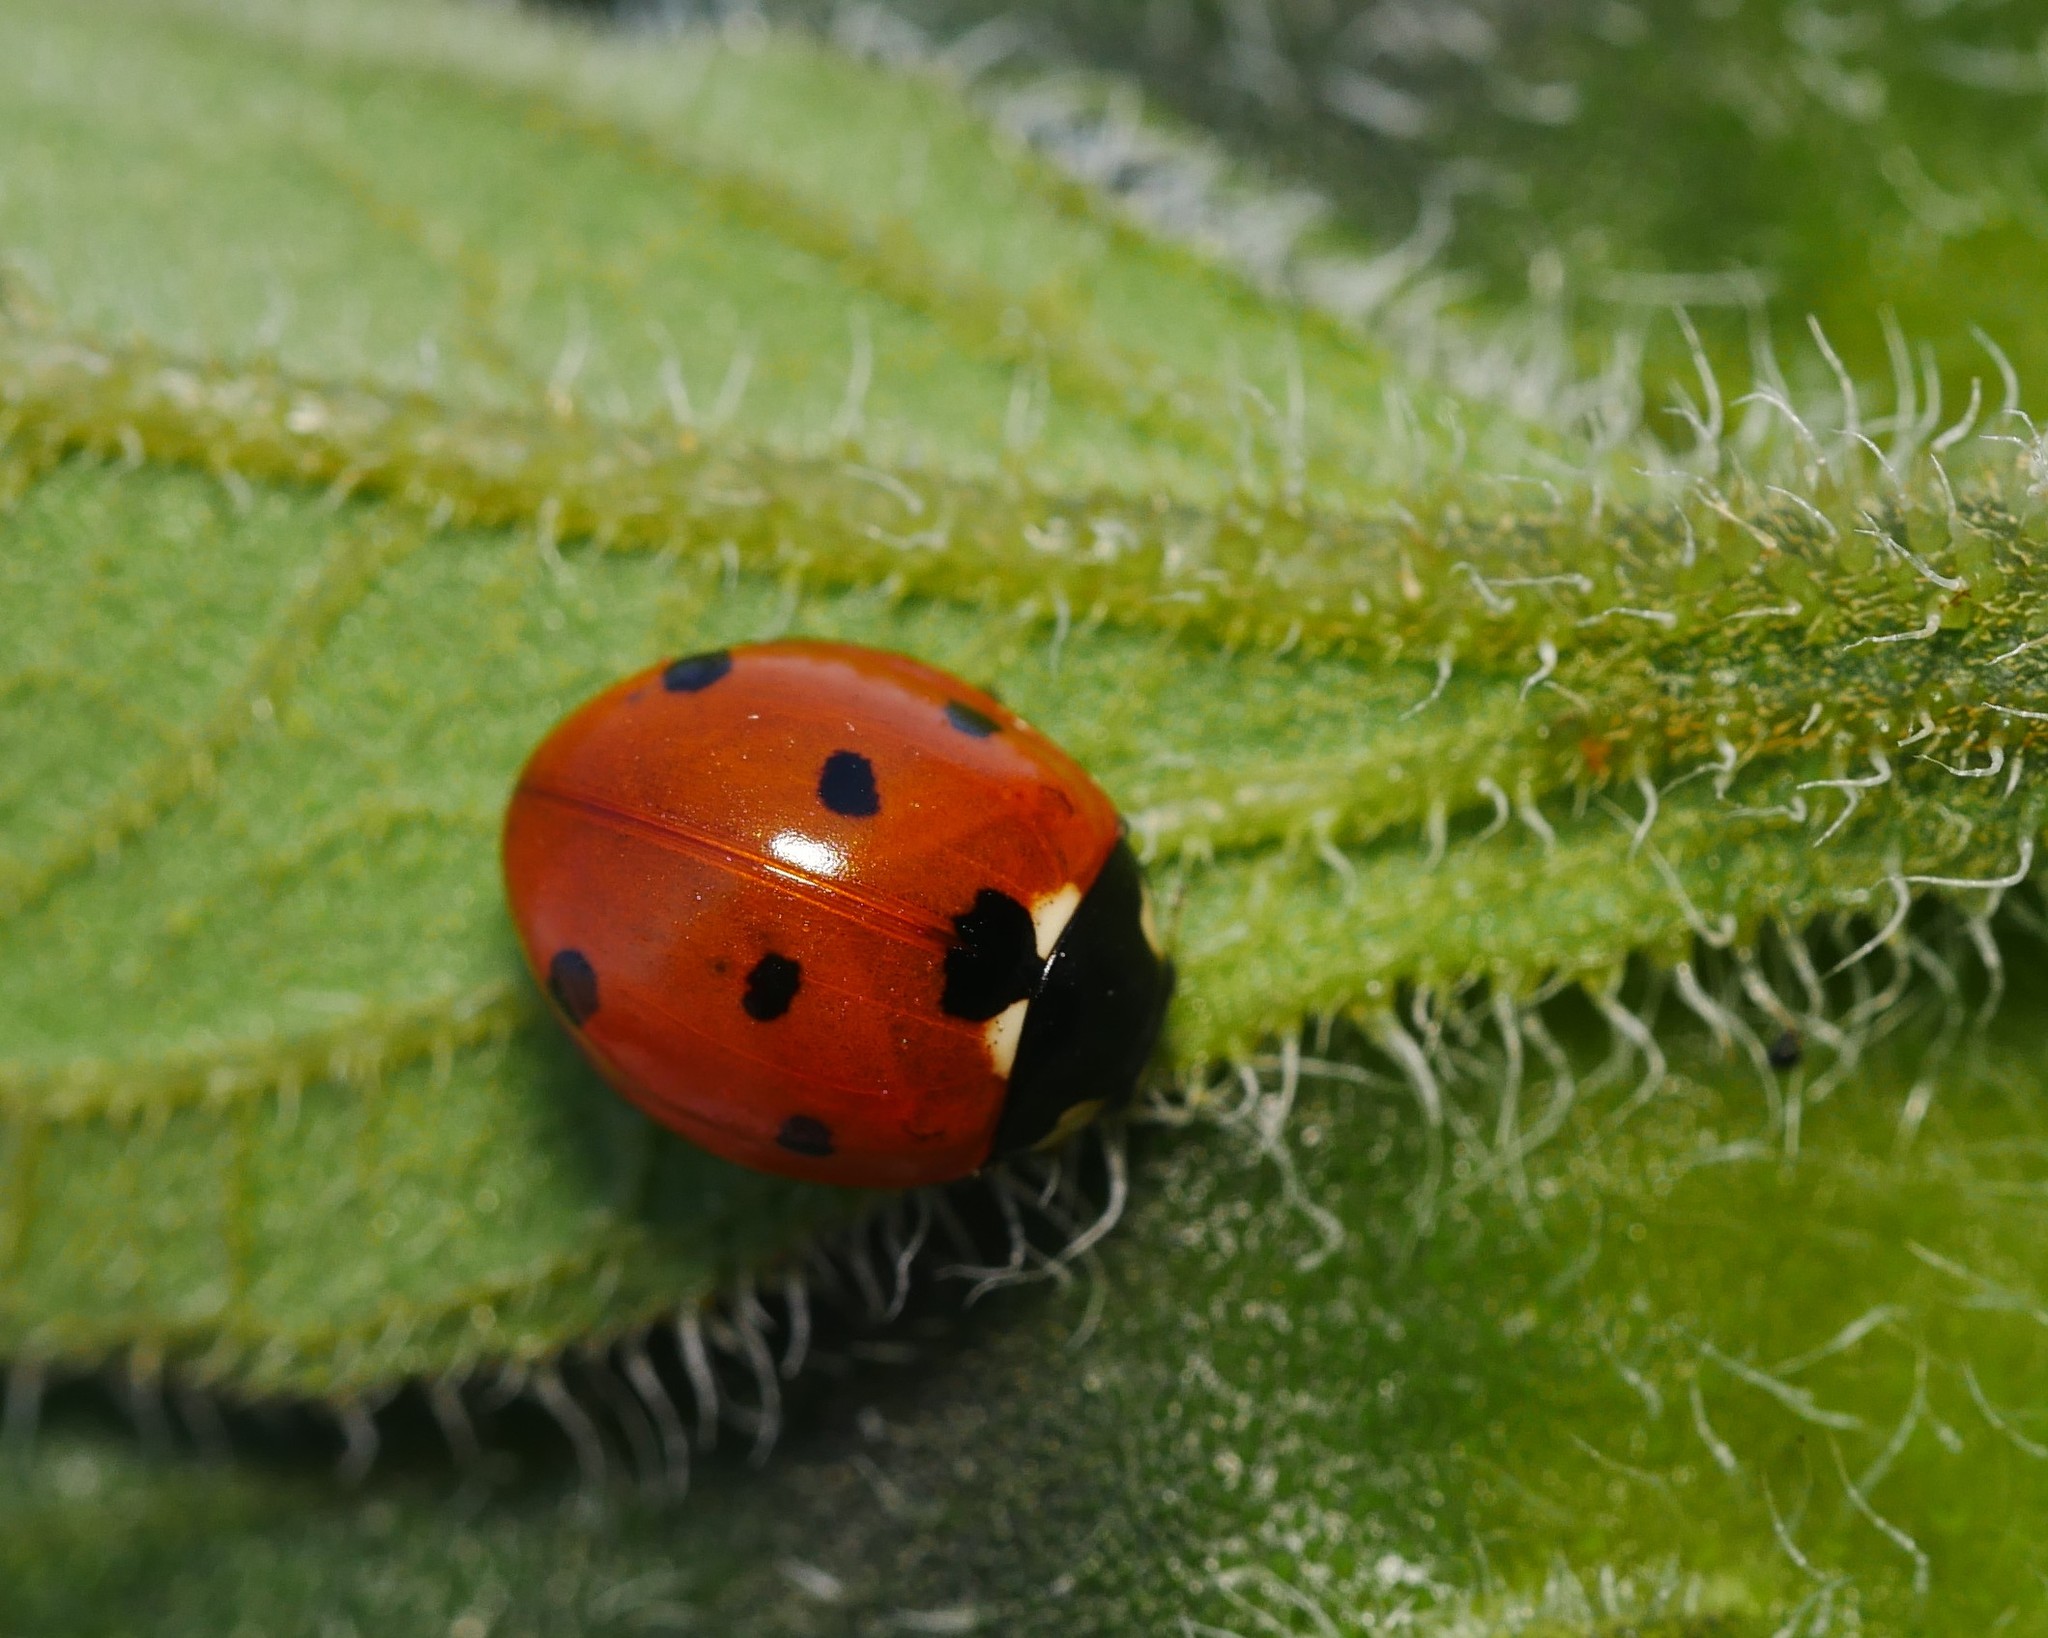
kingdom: Animalia
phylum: Arthropoda
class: Insecta
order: Coleoptera
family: Coccinellidae
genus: Coccinella
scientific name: Coccinella septempunctata
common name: Sevenspotted lady beetle
